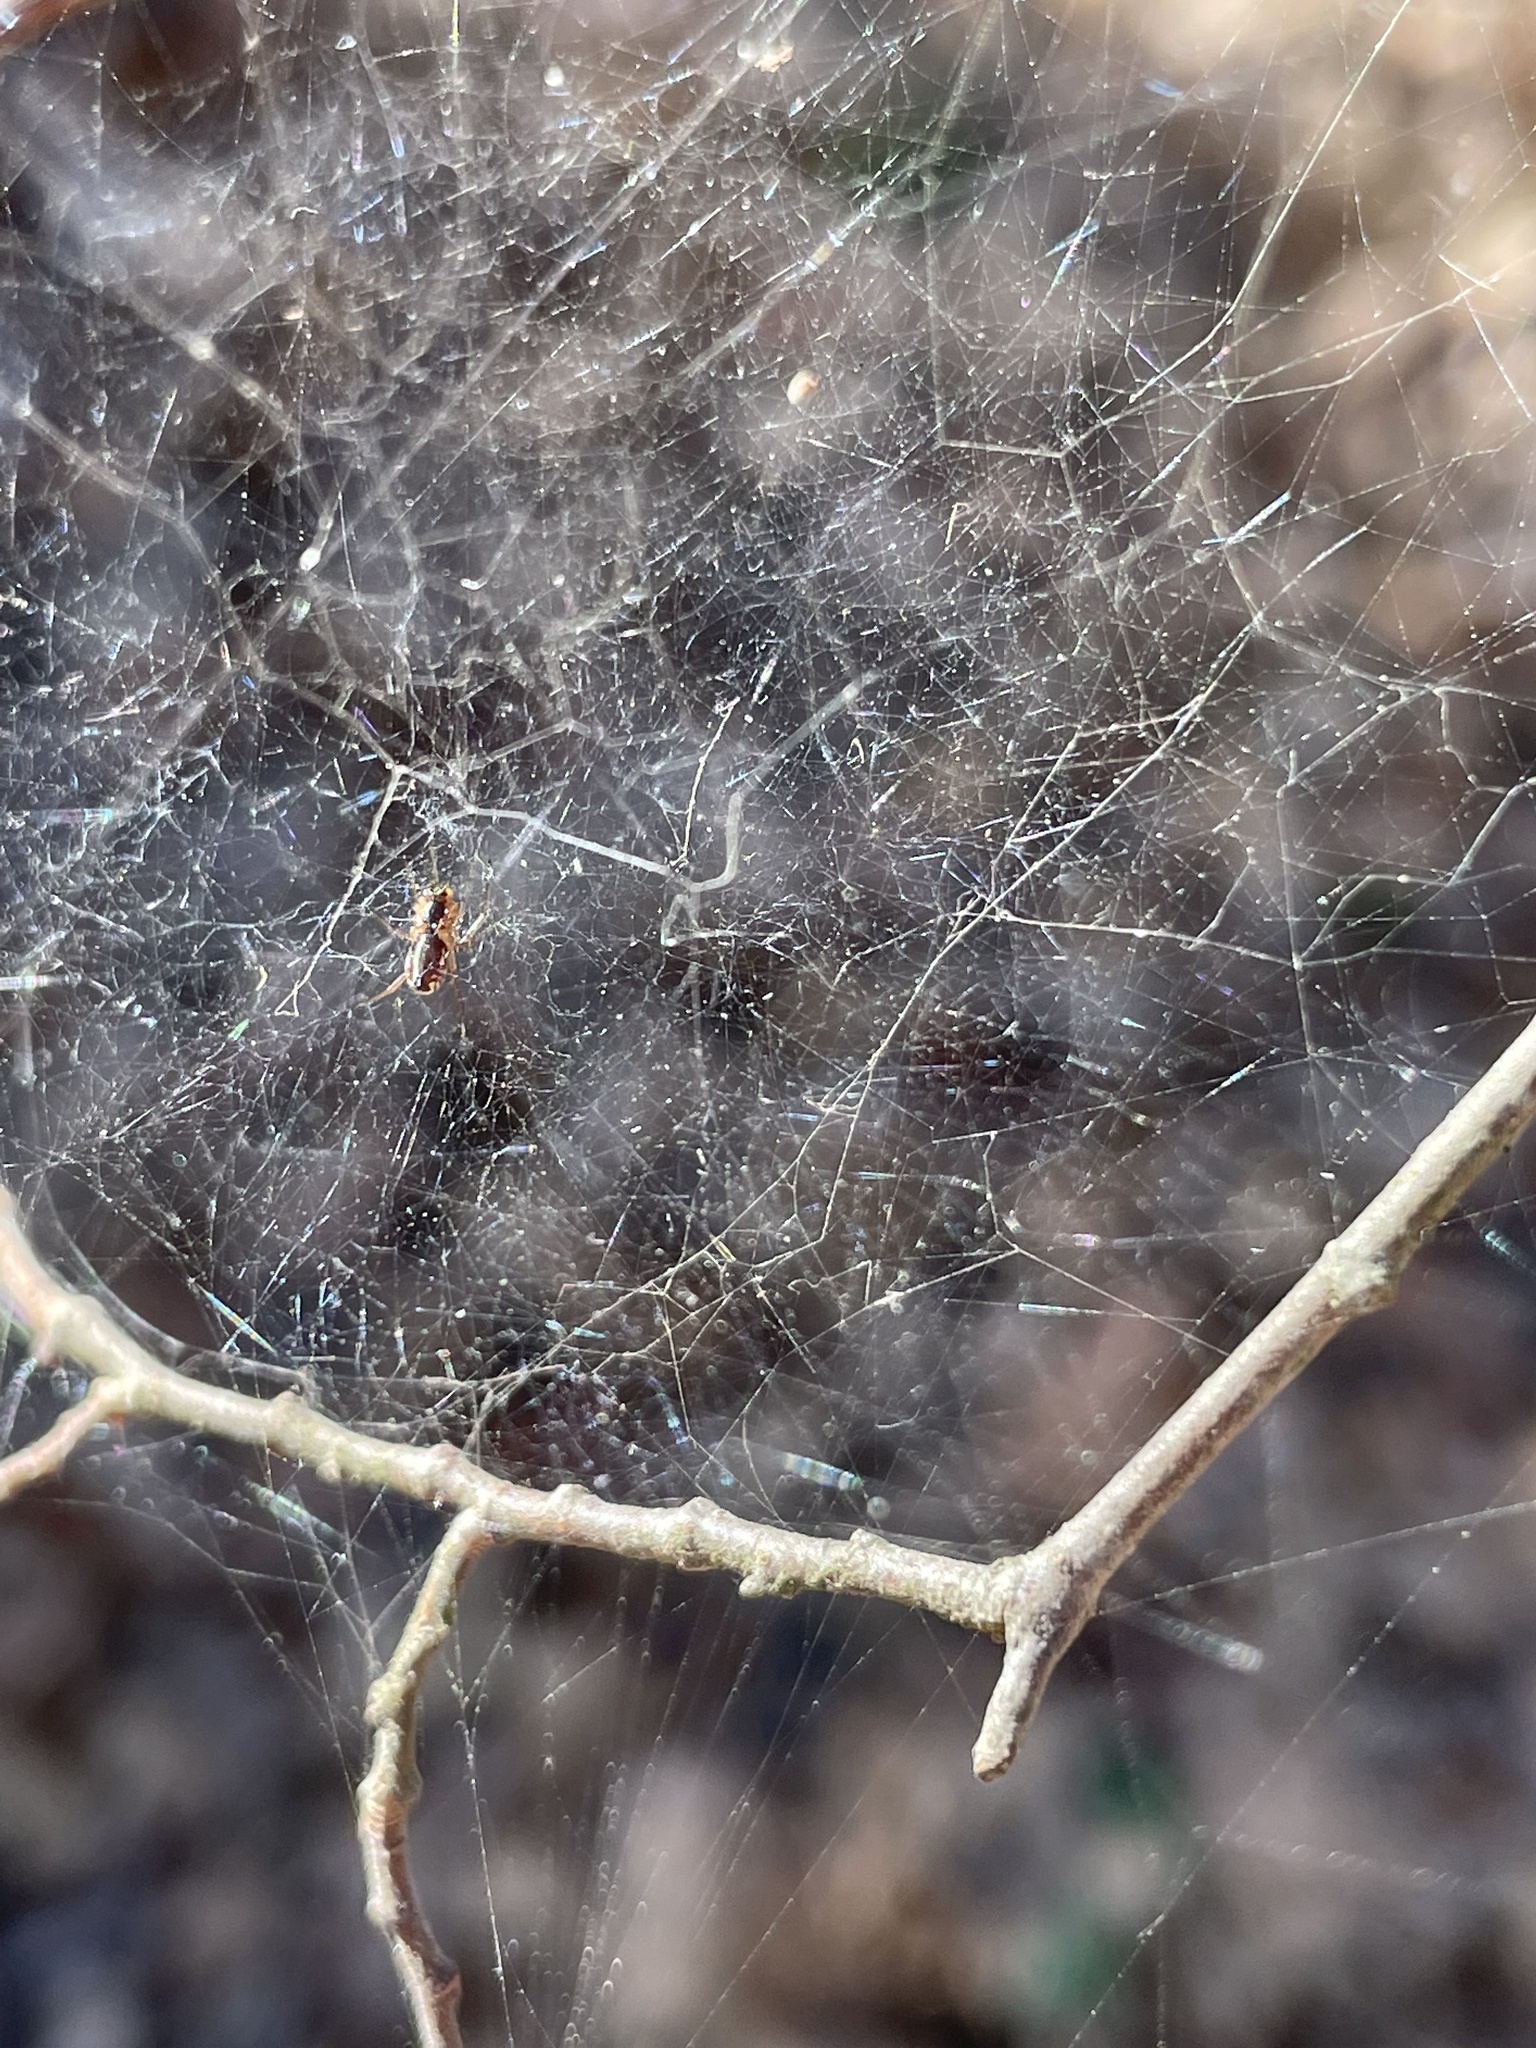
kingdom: Animalia
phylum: Arthropoda
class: Arachnida
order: Araneae
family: Linyphiidae
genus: Frontinella
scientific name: Frontinella pyramitela
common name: Bowl-and-doily spider
